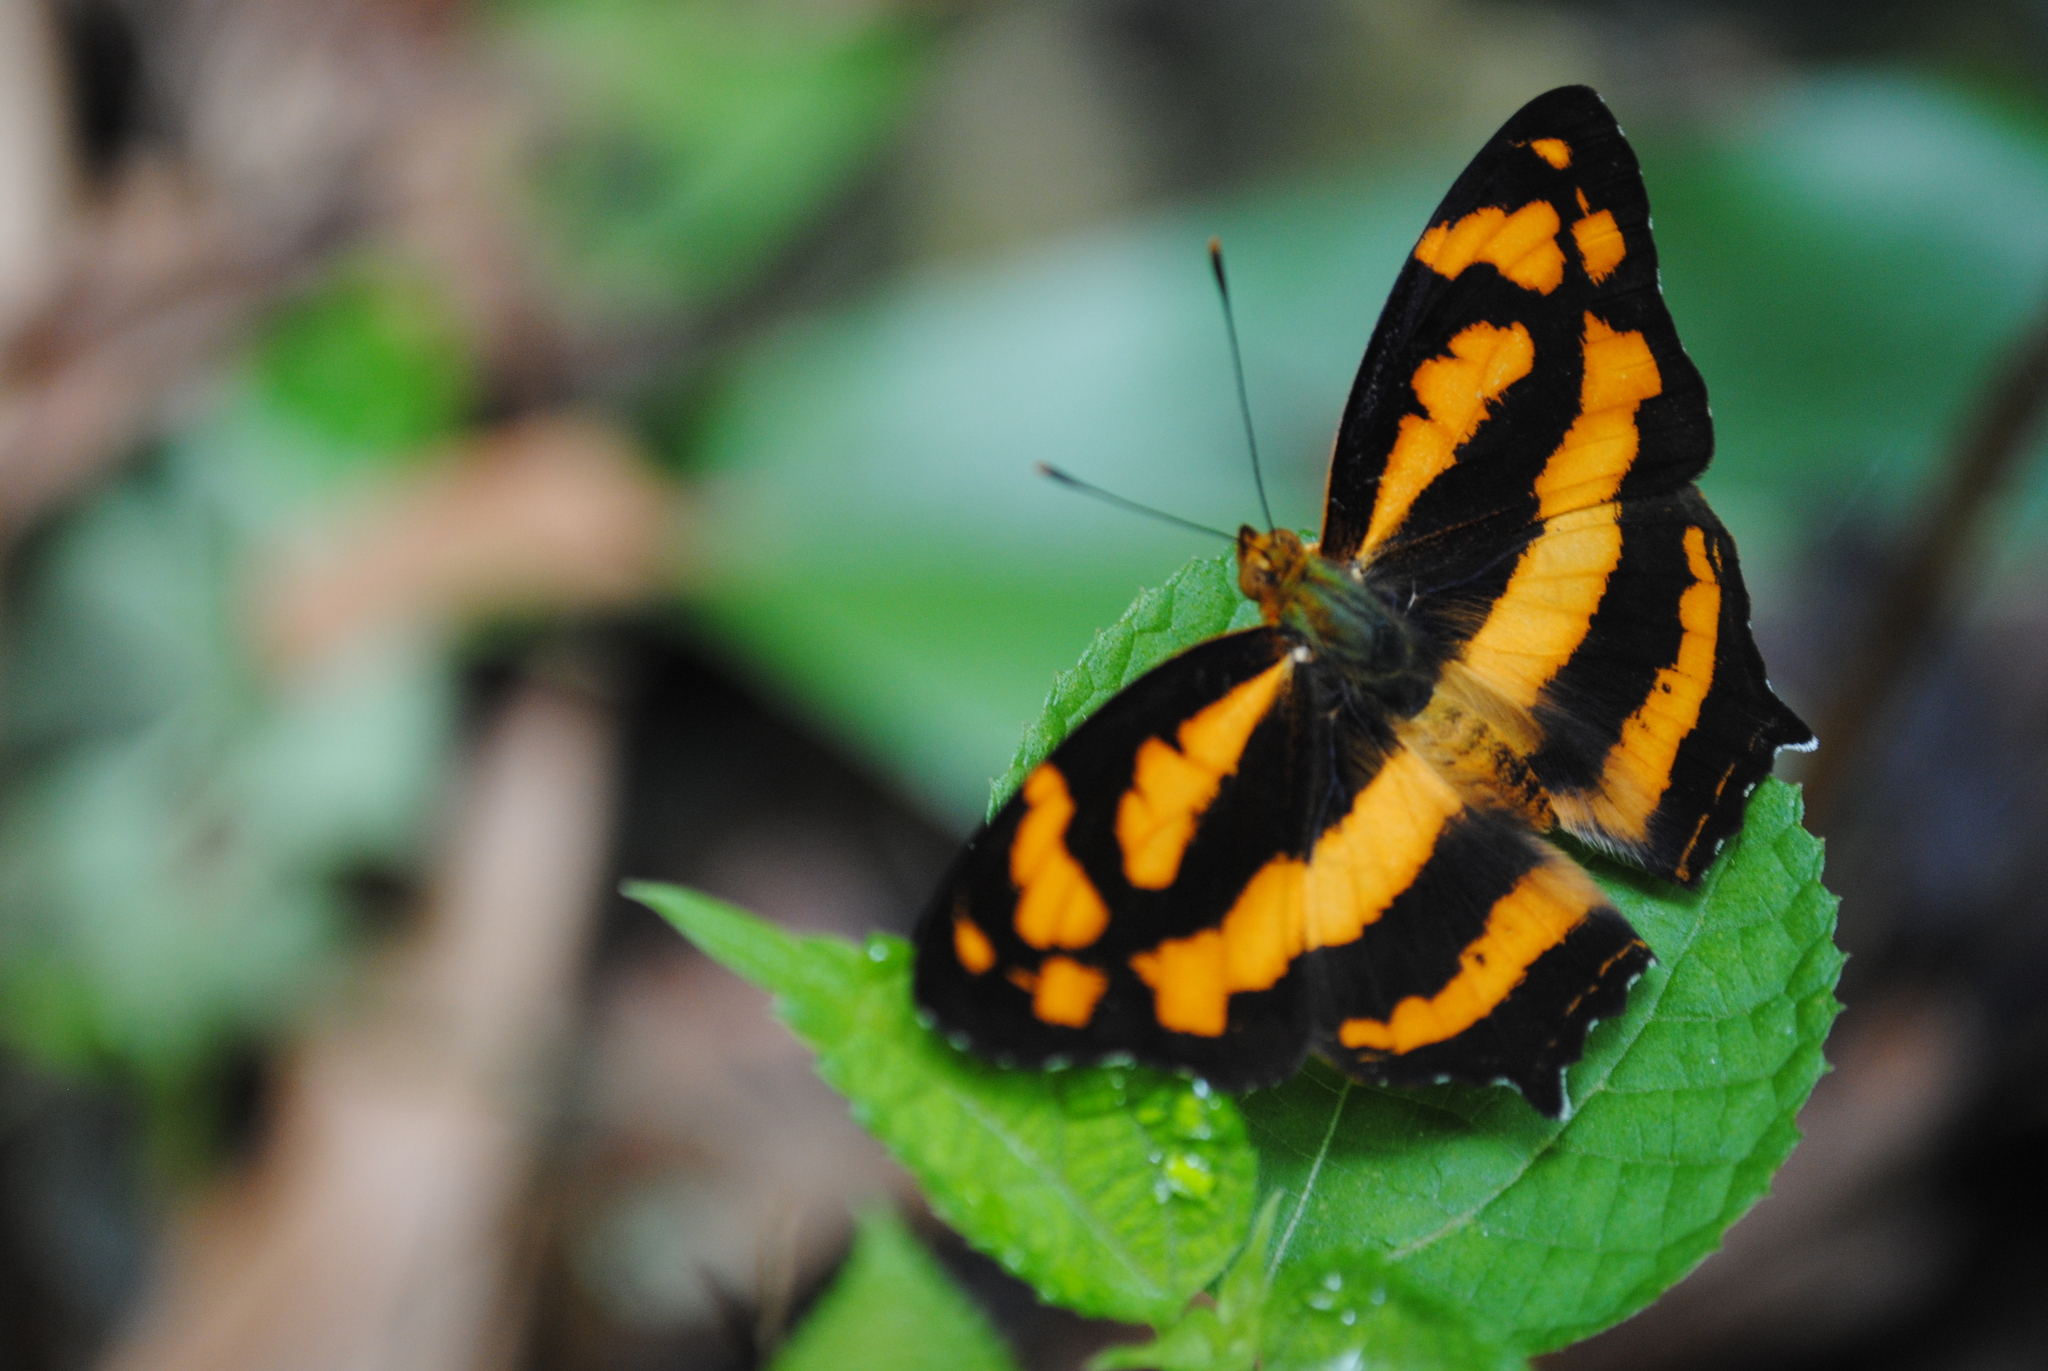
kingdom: Animalia
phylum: Arthropoda
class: Insecta
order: Lepidoptera
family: Nymphalidae
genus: Symbrenthia
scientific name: Symbrenthia hypselis
